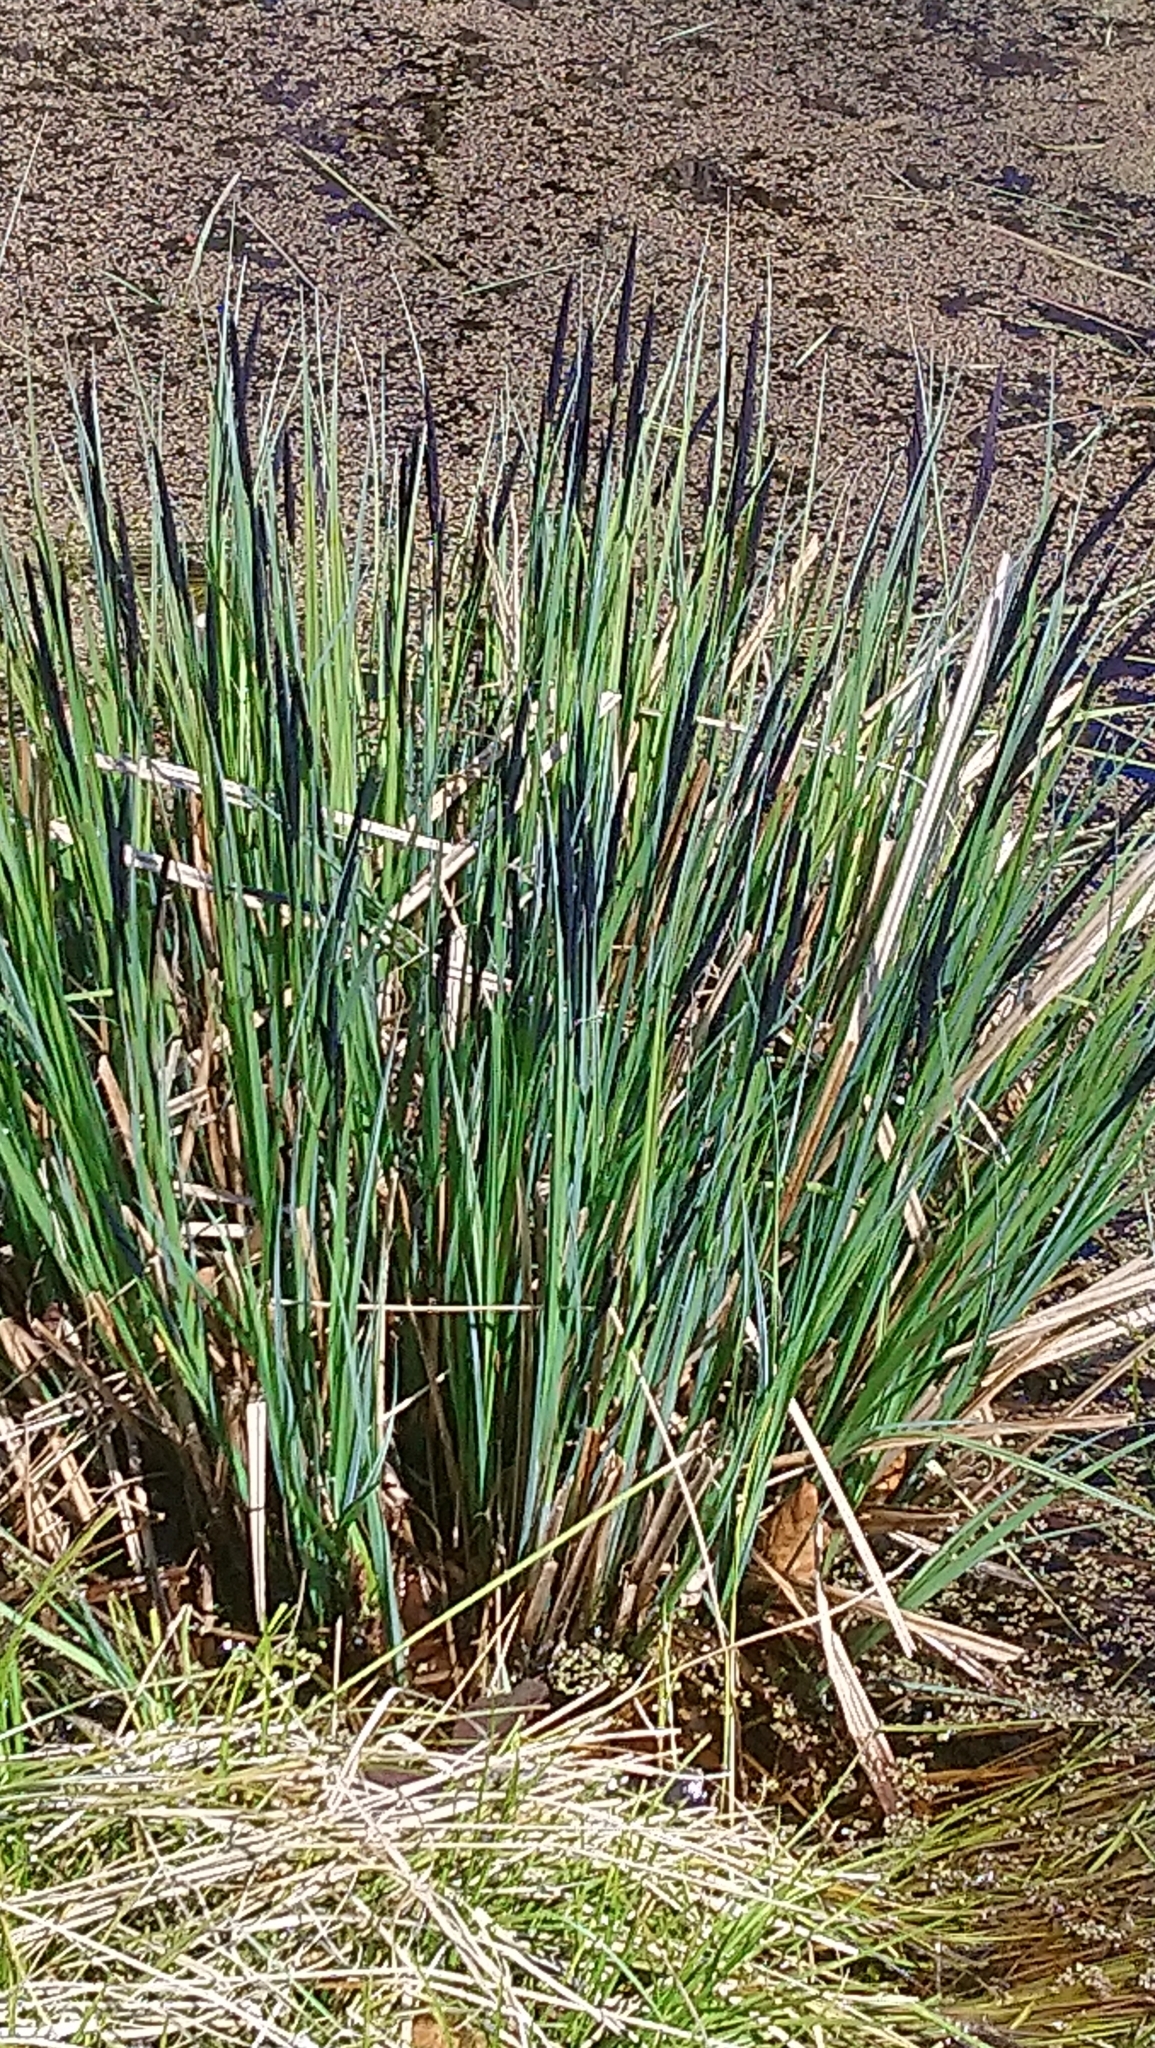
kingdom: Plantae
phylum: Tracheophyta
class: Liliopsida
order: Poales
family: Poaceae
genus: Molinia
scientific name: Molinia caerulea
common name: Purple moor-grass
